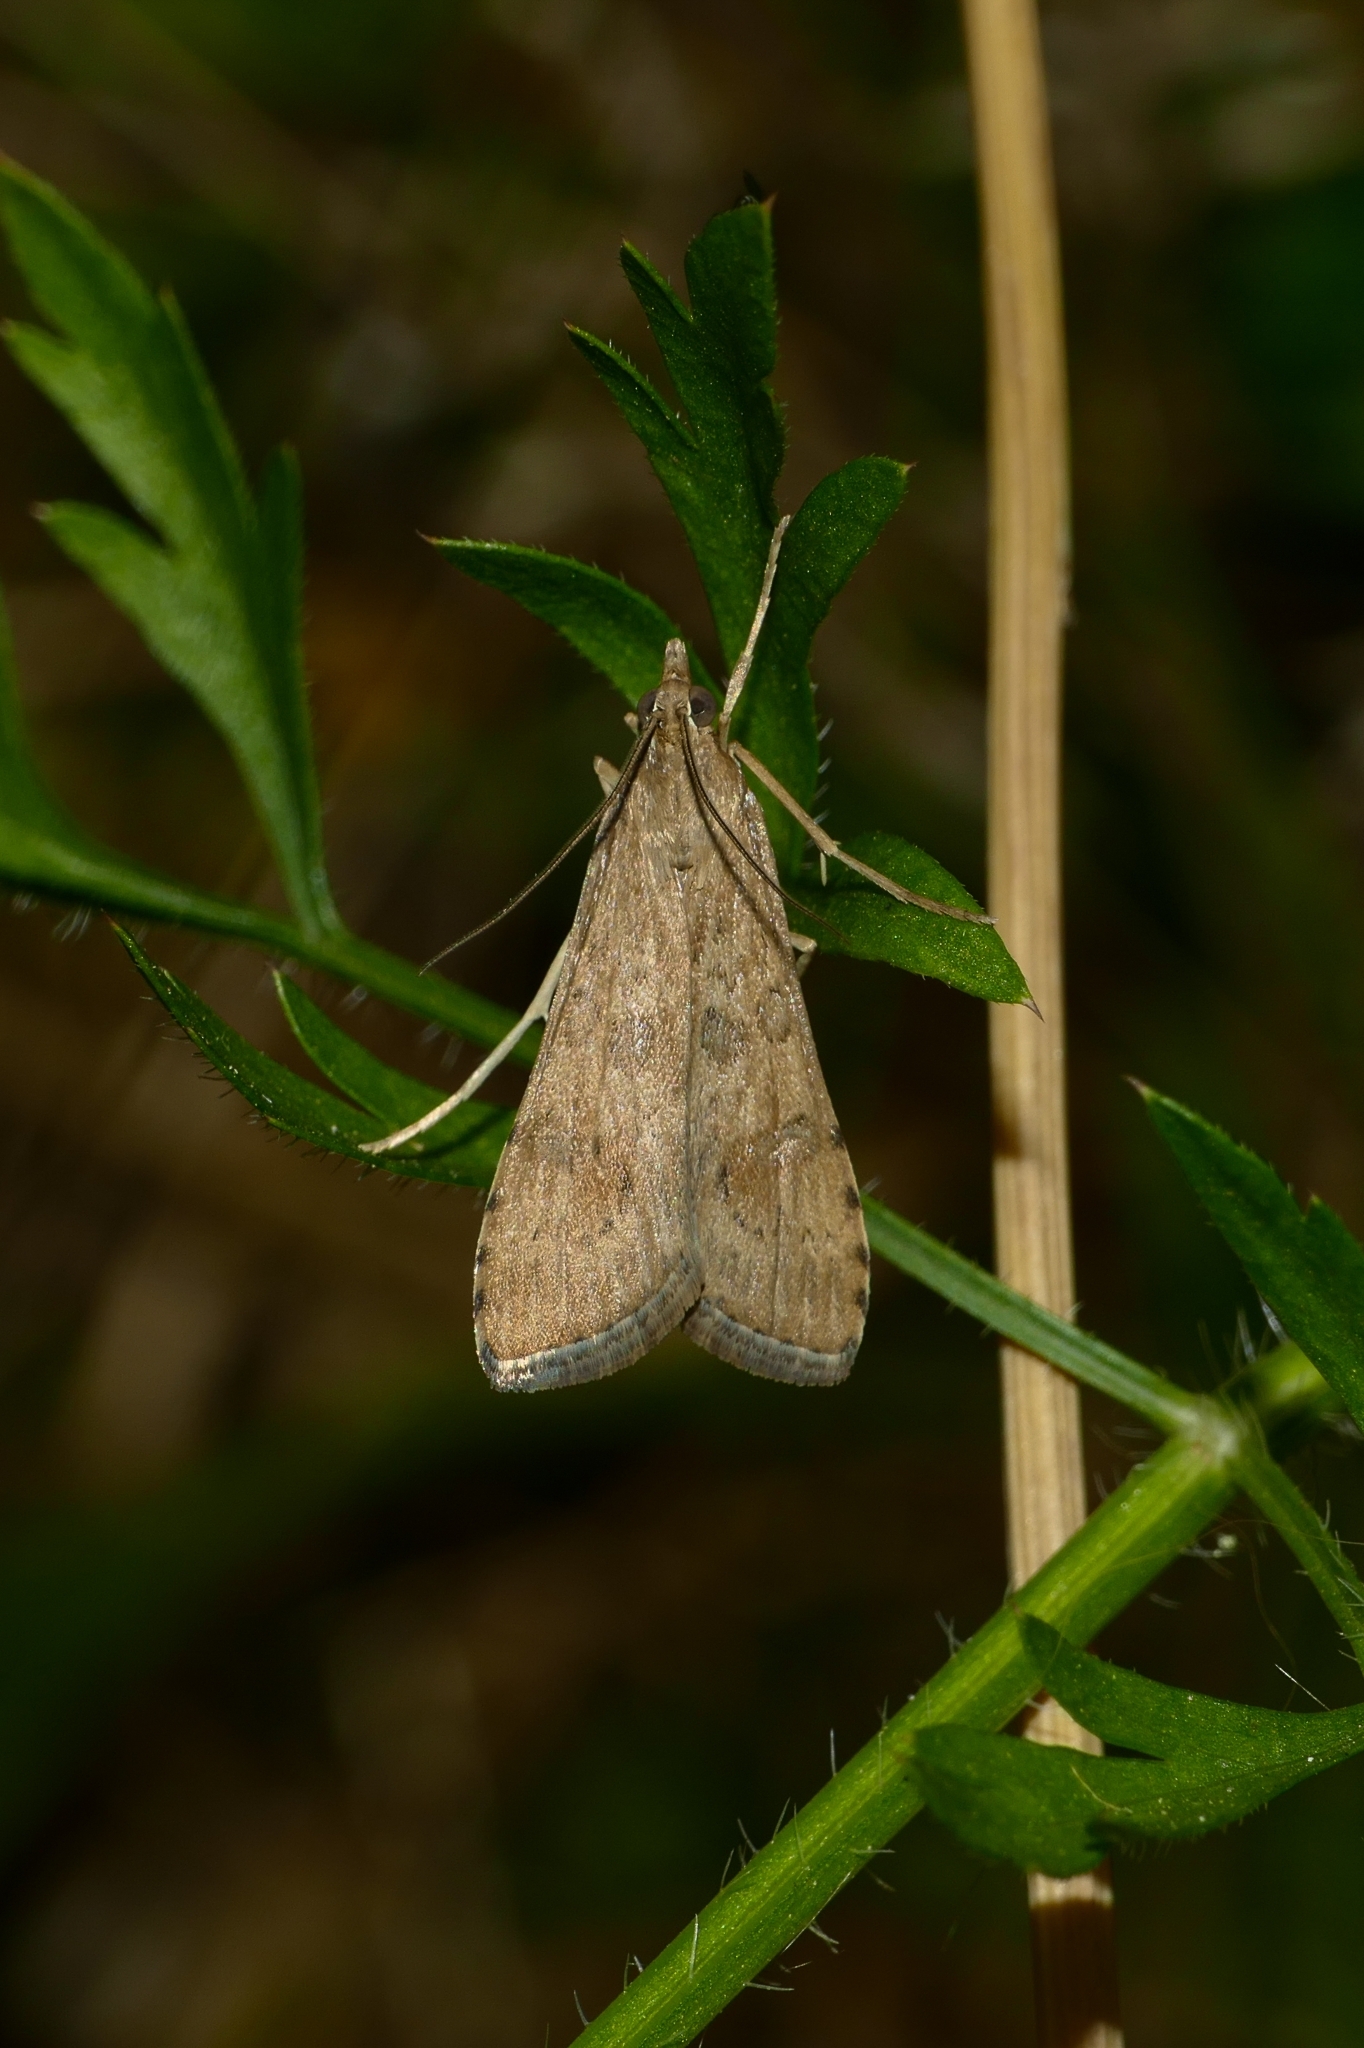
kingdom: Animalia
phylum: Arthropoda
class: Insecta
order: Lepidoptera
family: Crambidae
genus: Nomophila
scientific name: Nomophila noctuella
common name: Rush veneer
